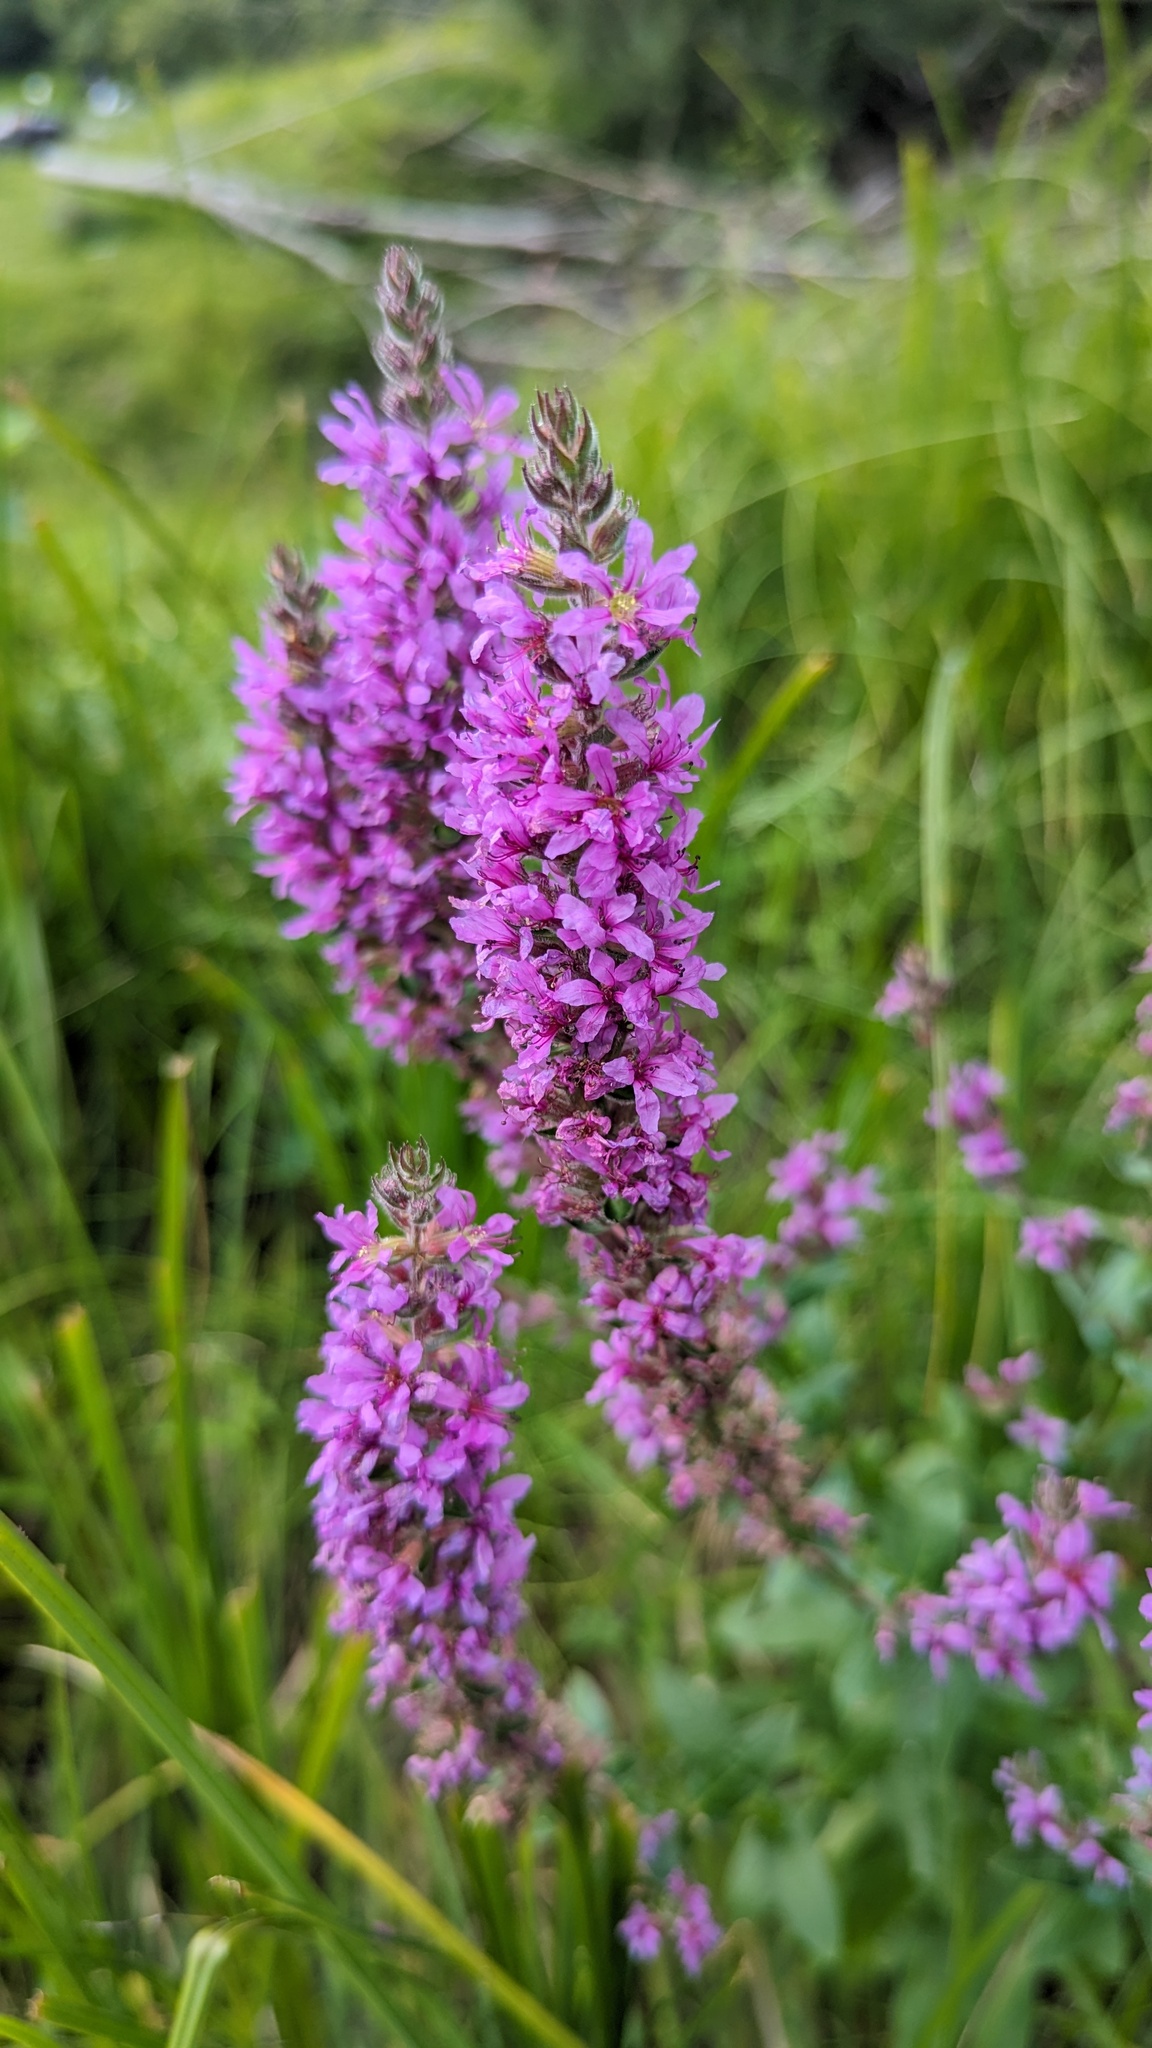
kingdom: Plantae
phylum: Tracheophyta
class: Magnoliopsida
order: Myrtales
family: Lythraceae
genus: Lythrum
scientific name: Lythrum salicaria
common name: Purple loosestrife
